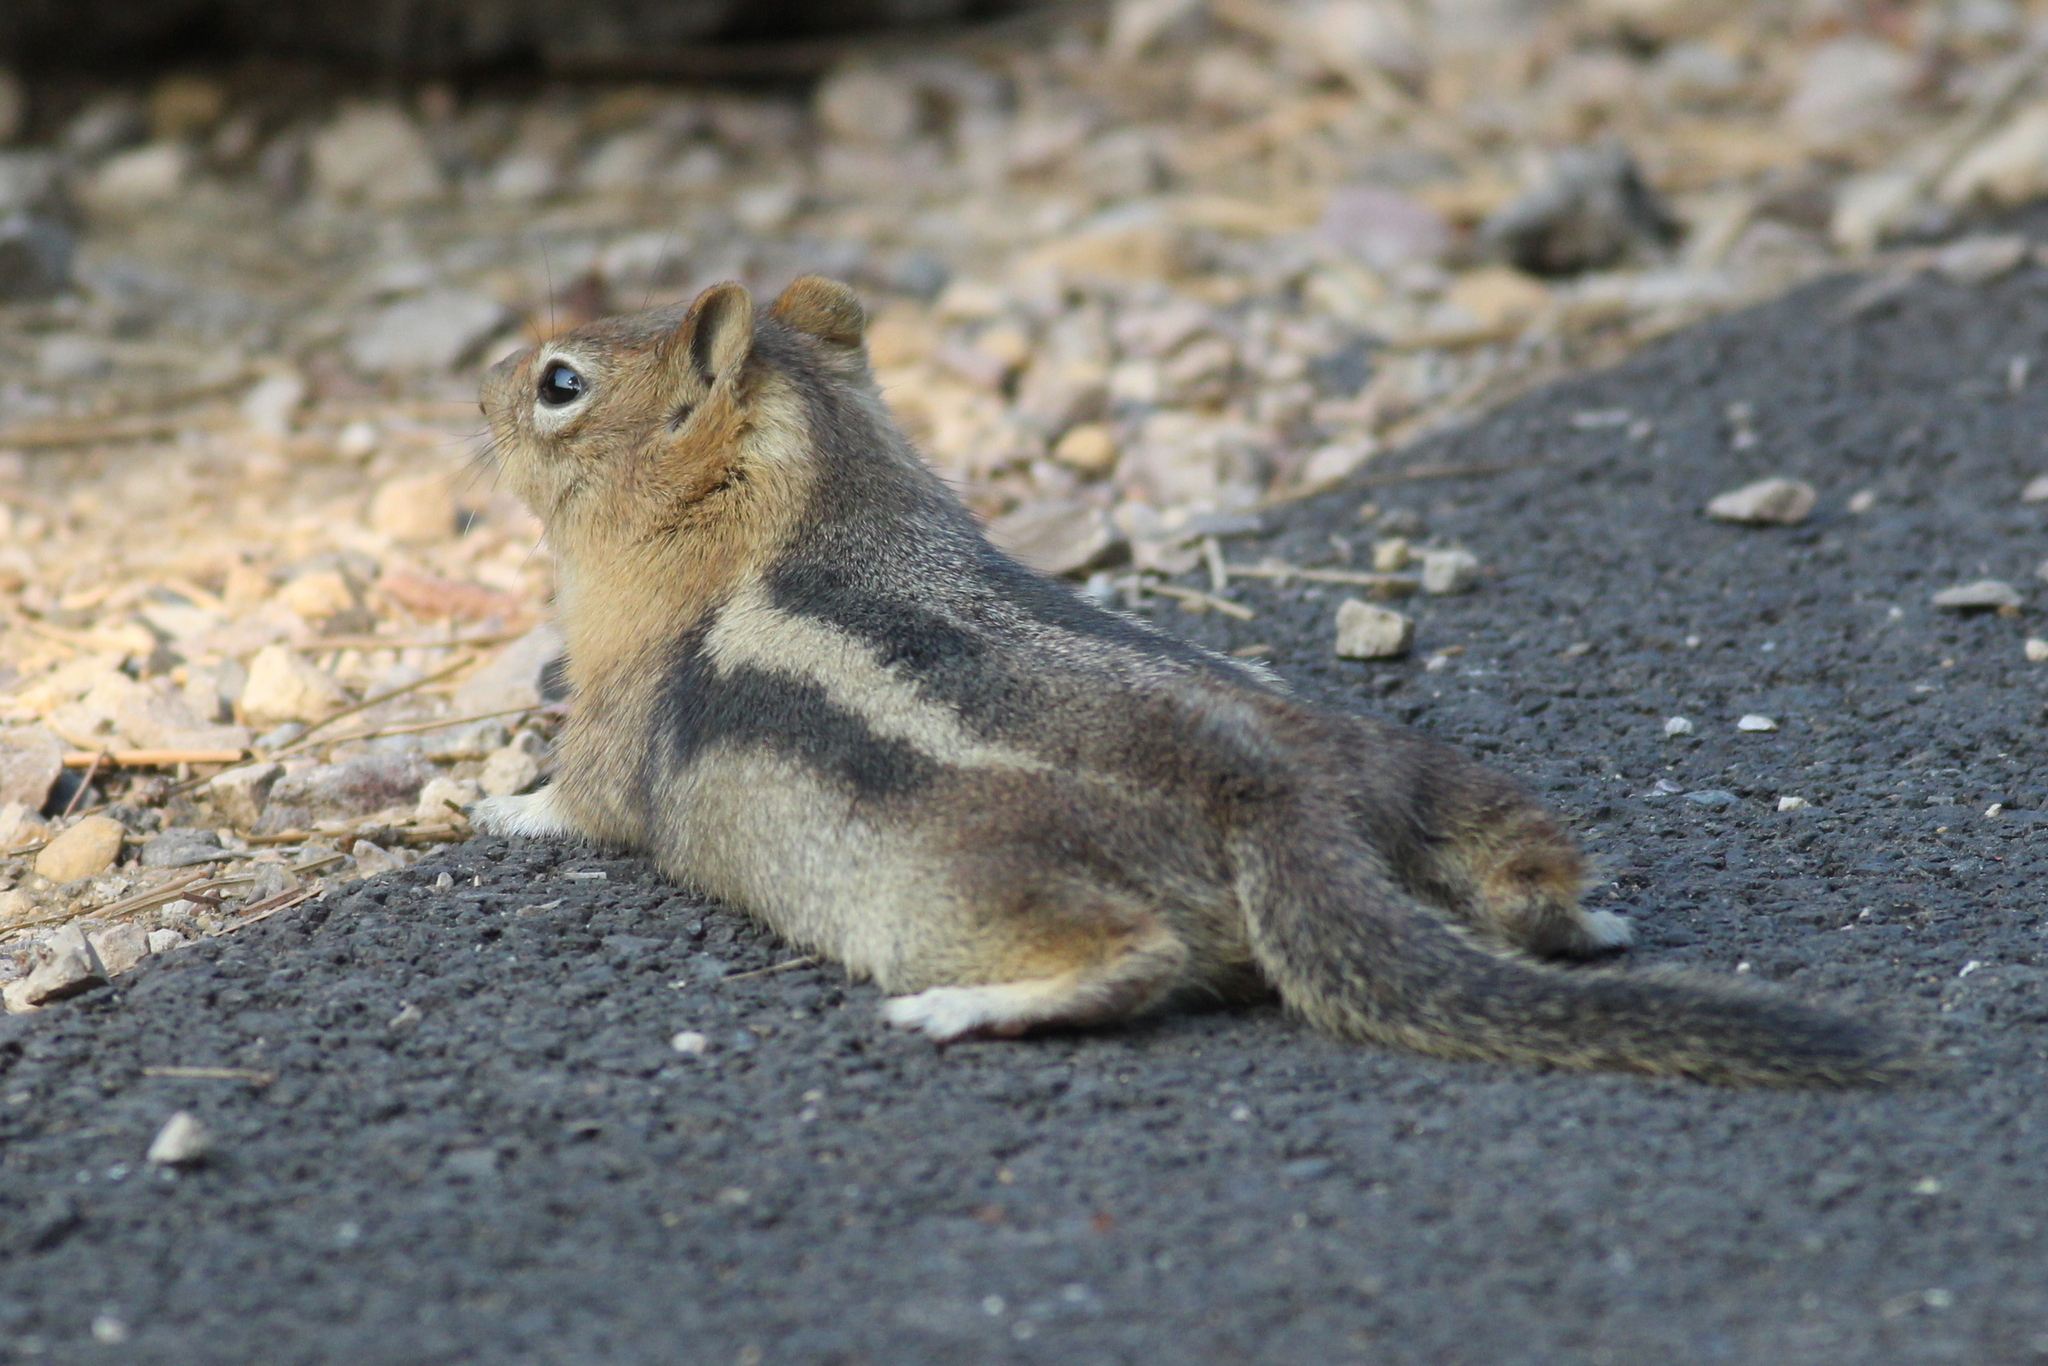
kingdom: Animalia
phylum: Chordata
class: Mammalia
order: Rodentia
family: Sciuridae
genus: Callospermophilus
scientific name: Callospermophilus lateralis
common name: Golden-mantled ground squirrel
